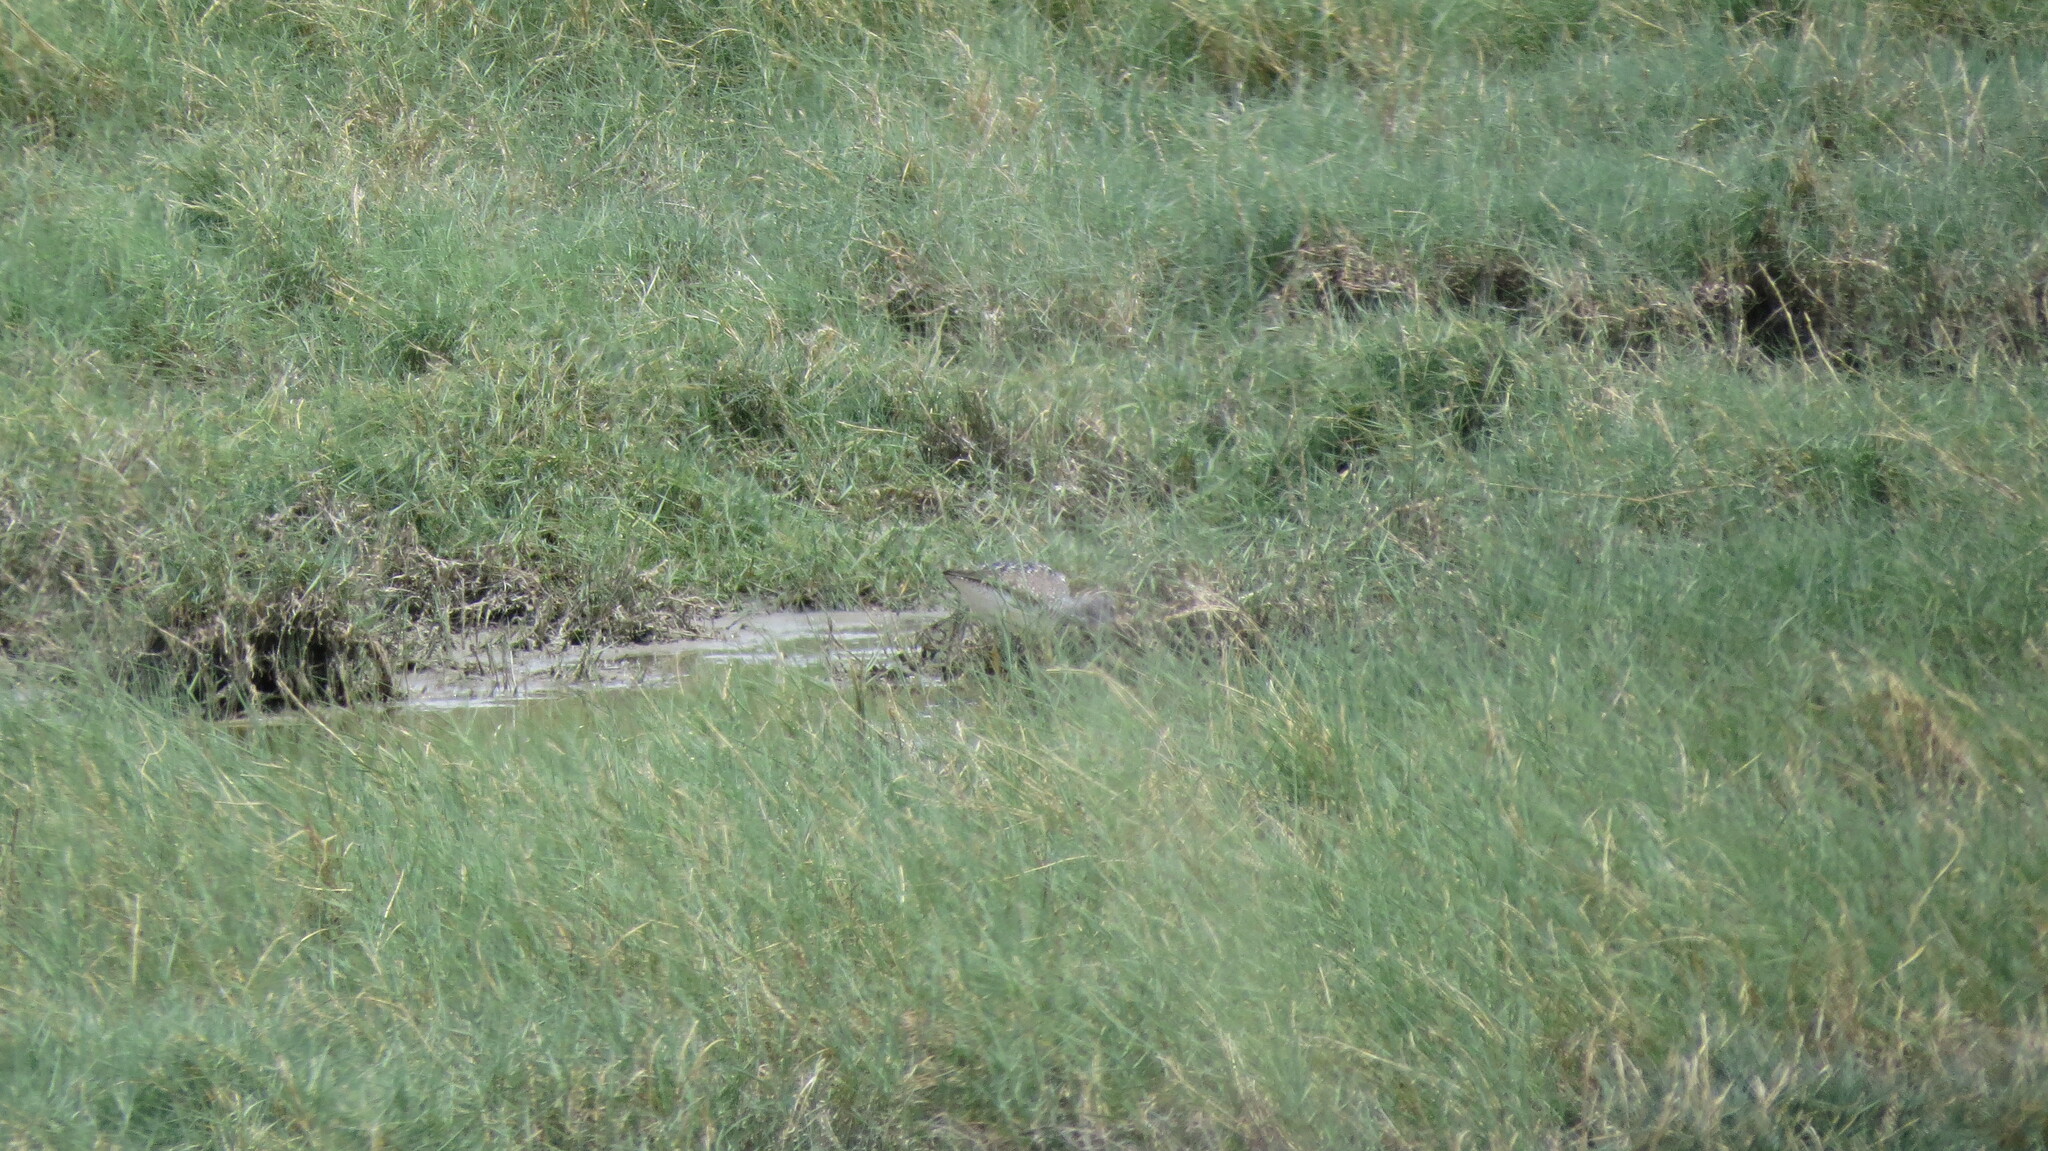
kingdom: Animalia
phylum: Chordata
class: Aves
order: Charadriiformes
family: Scolopacidae
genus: Tringa
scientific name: Tringa melanoleuca
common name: Greater yellowlegs
